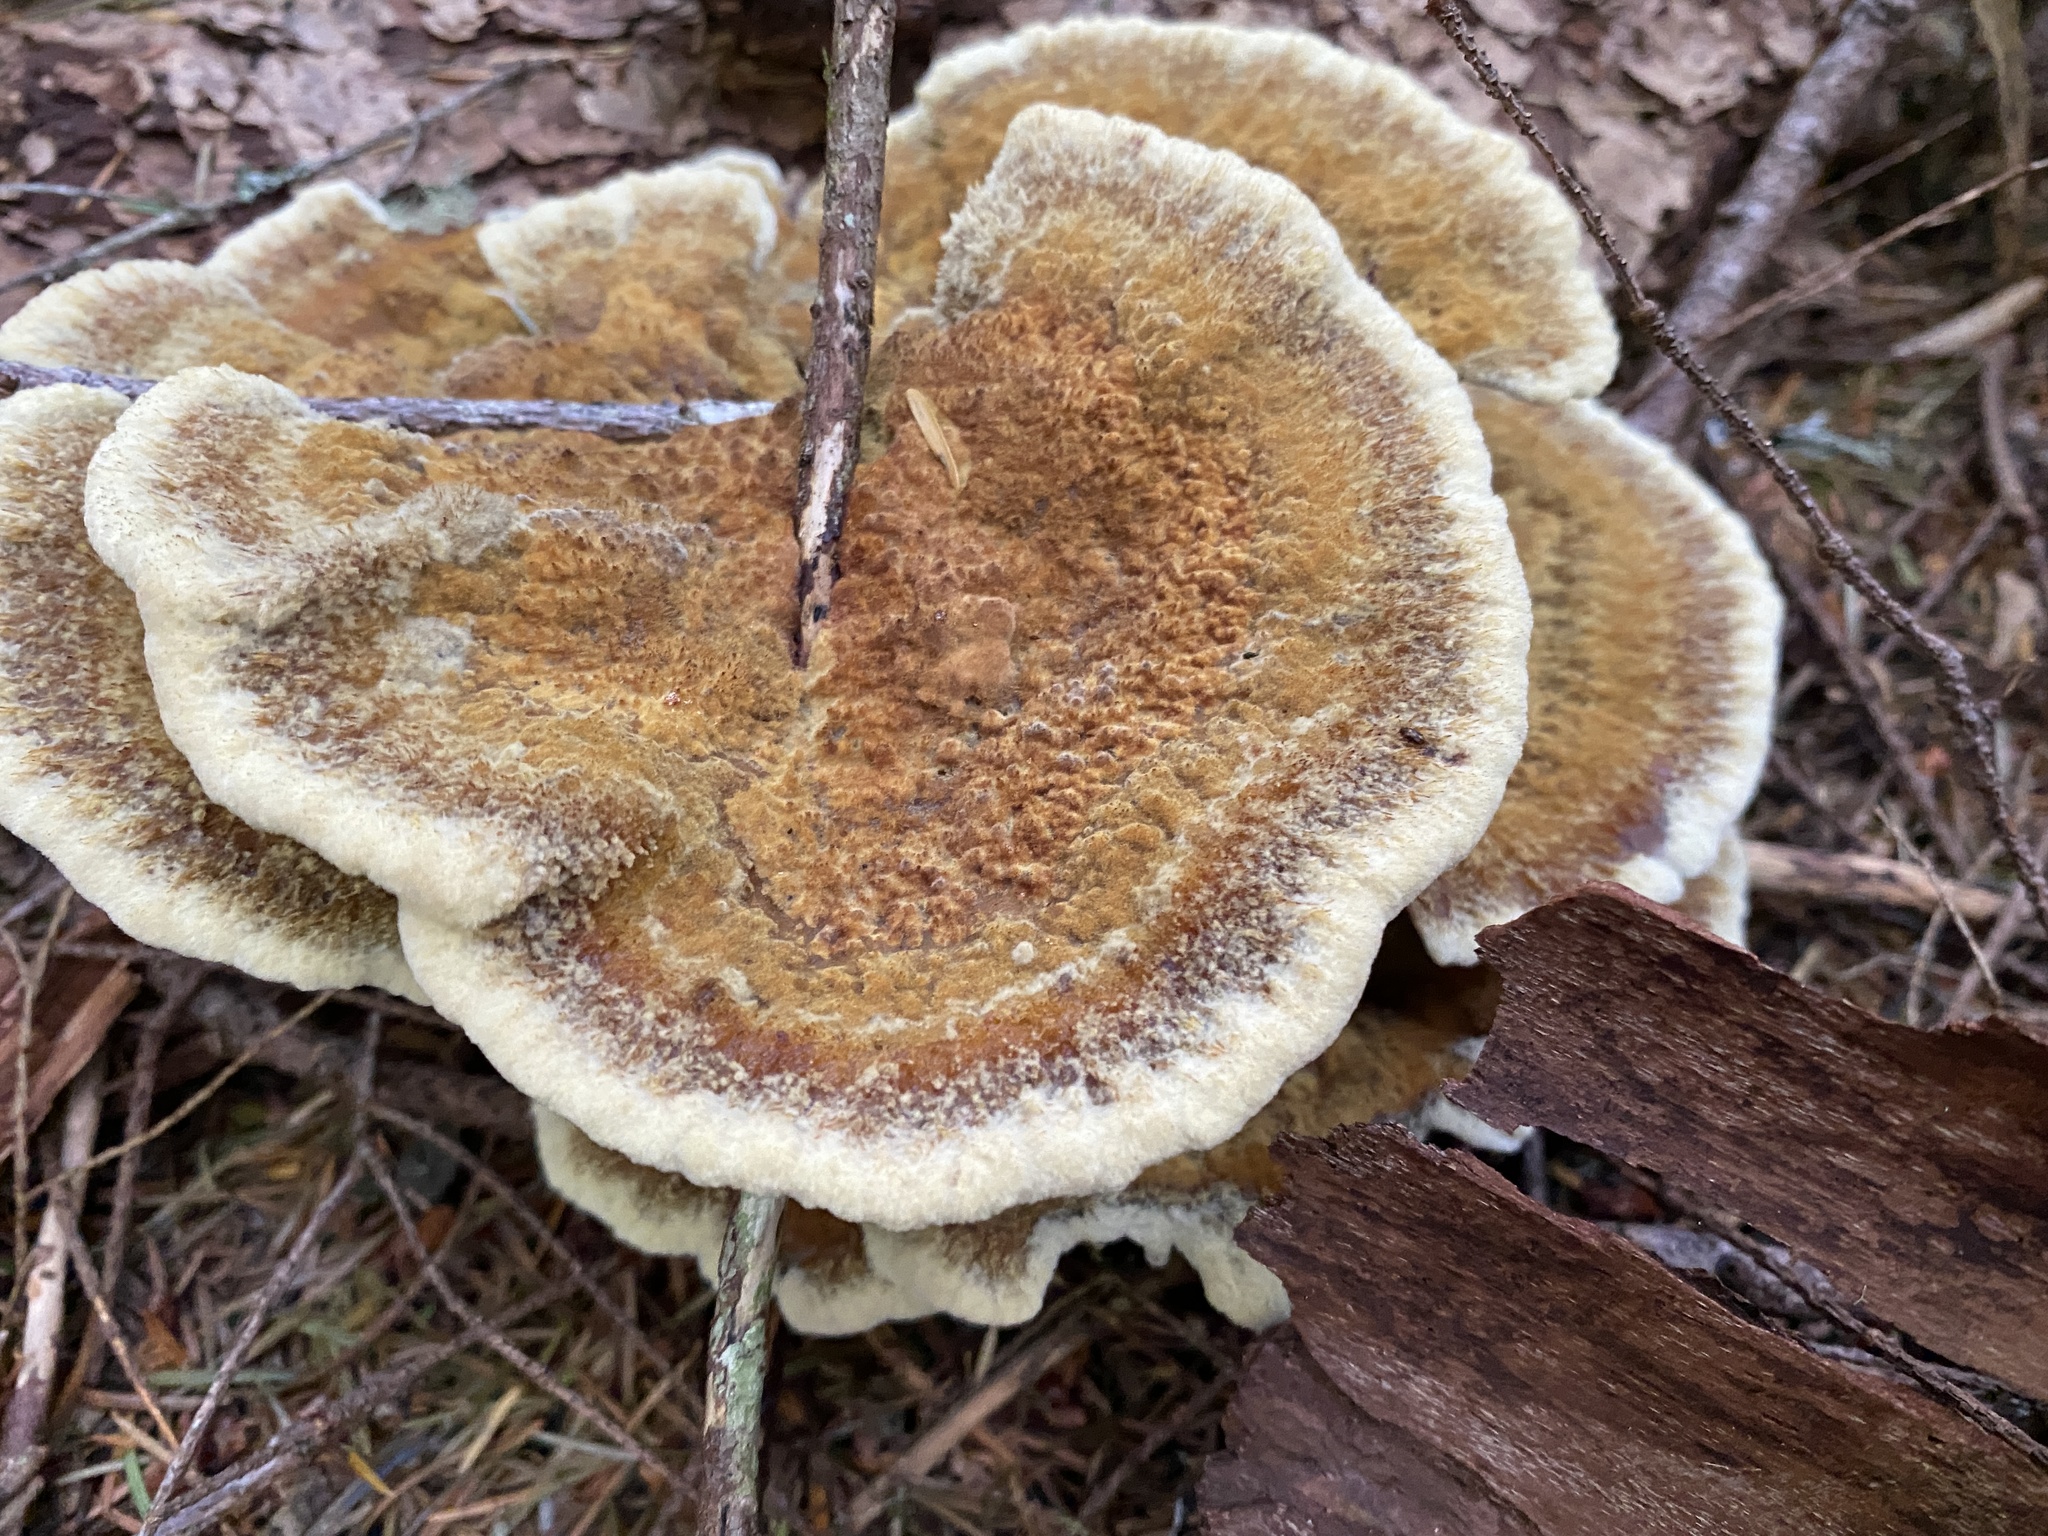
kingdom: Fungi
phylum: Basidiomycota
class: Agaricomycetes
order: Polyporales
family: Laetiporaceae
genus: Phaeolus
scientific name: Phaeolus schweinitzii
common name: Dyer's mazegill
